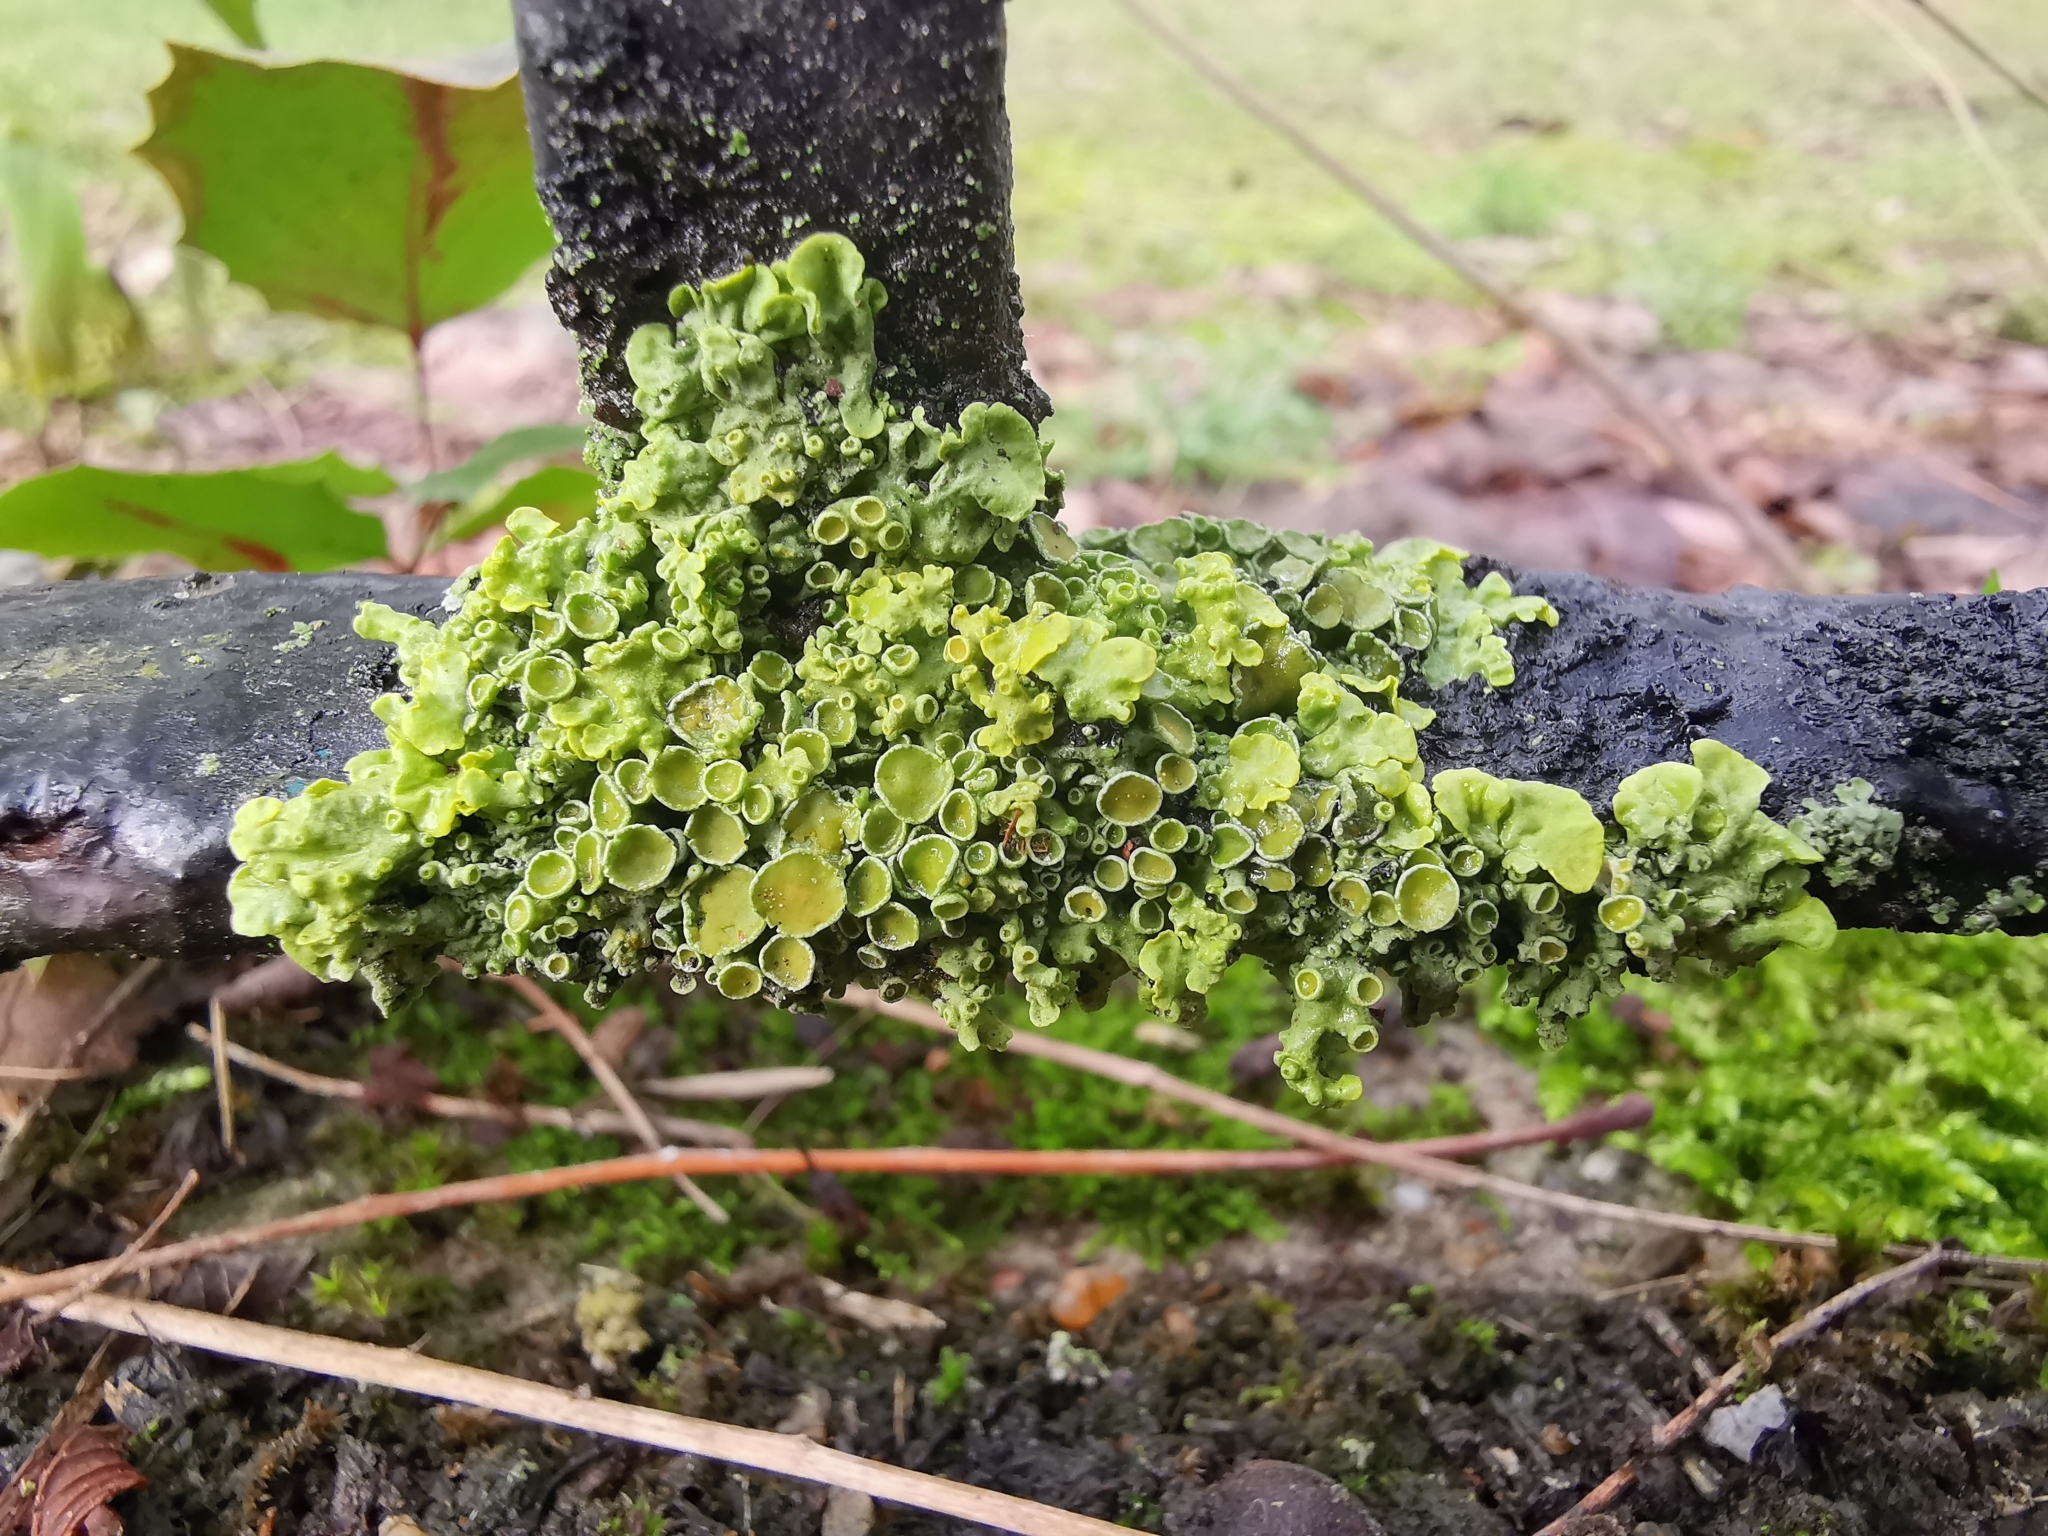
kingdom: Fungi
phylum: Ascomycota
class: Lecanoromycetes
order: Teloschistales
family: Teloschistaceae
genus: Xanthoria
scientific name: Xanthoria parietina
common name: Common orange lichen
